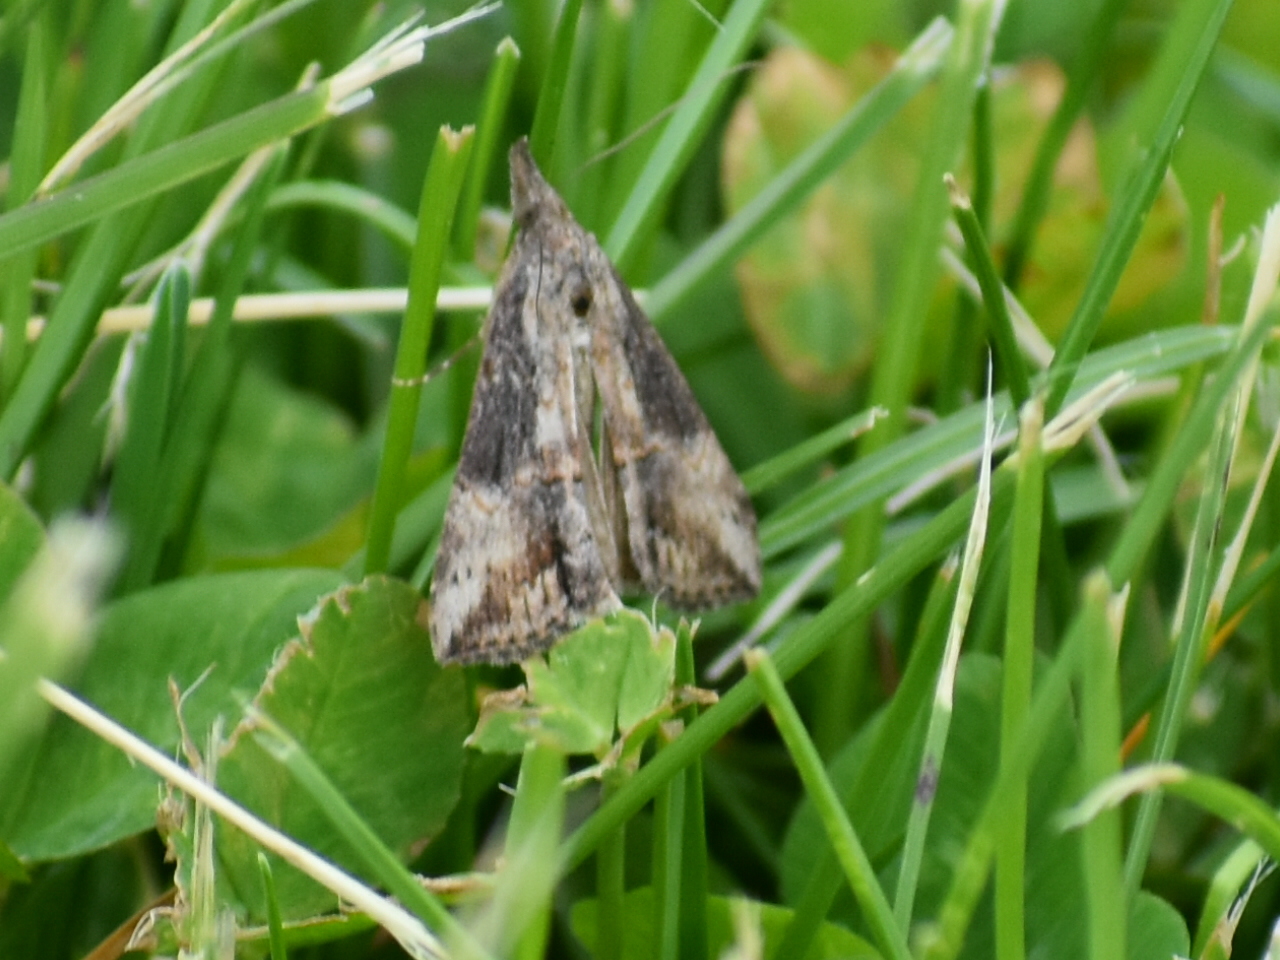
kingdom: Animalia
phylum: Arthropoda
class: Insecta
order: Lepidoptera
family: Erebidae
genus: Hypena
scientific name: Hypena scabra
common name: Green cloverworm
